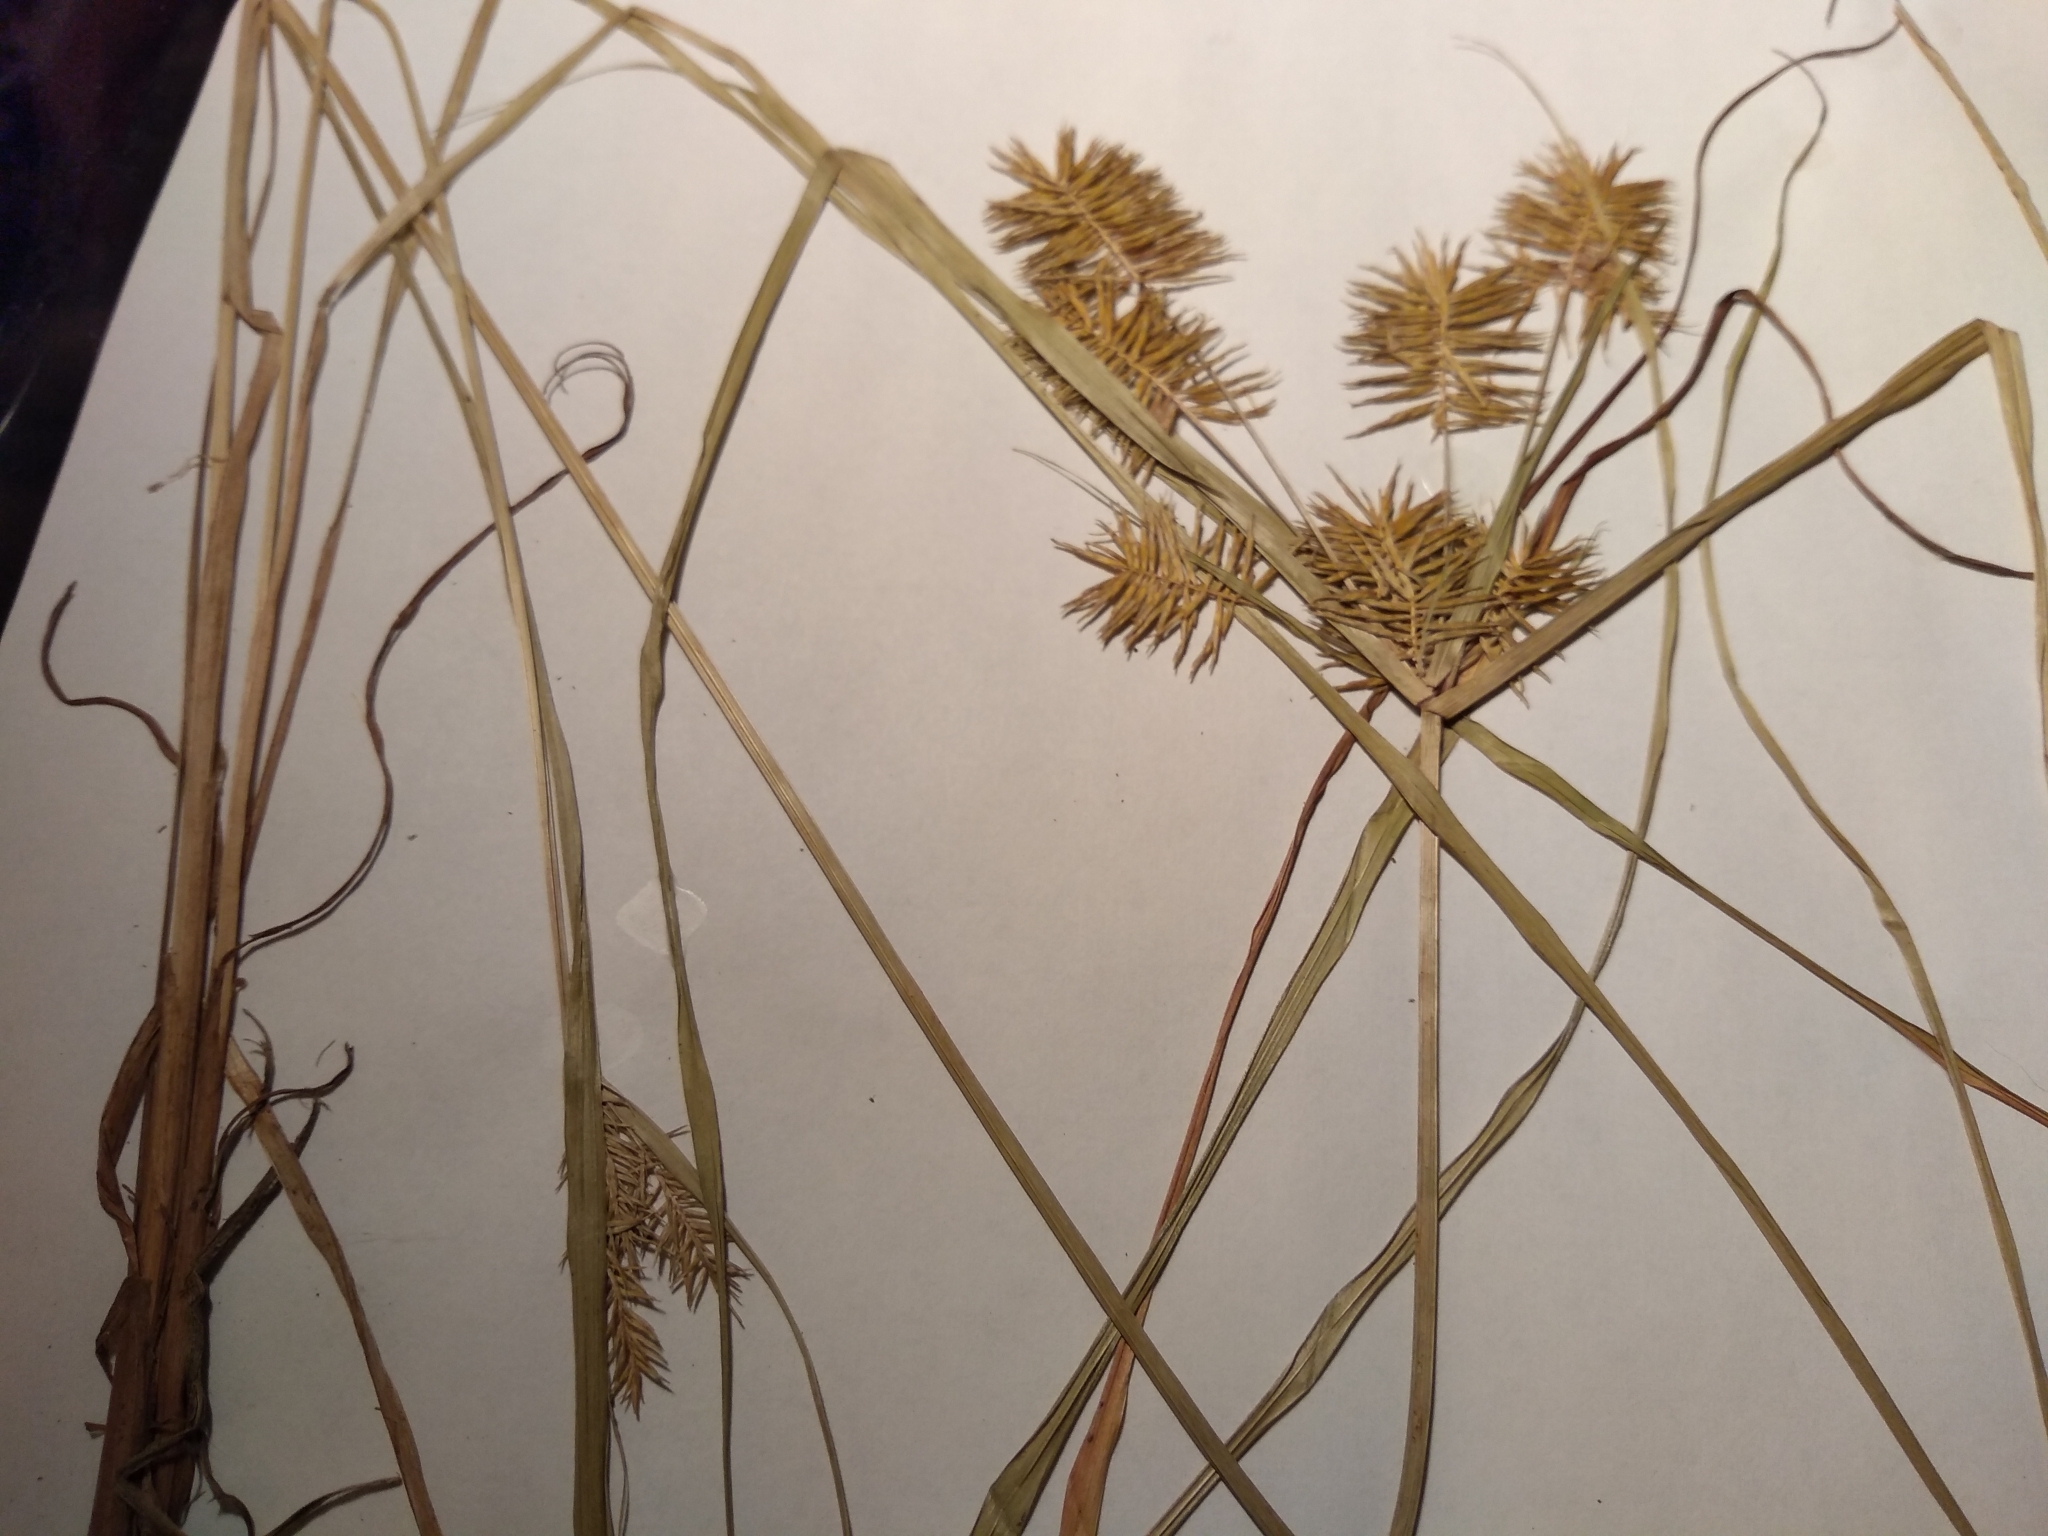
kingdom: Plantae
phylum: Tracheophyta
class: Liliopsida
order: Poales
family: Cyperaceae
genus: Cyperus
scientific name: Cyperus strigosus
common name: False nutsedge
